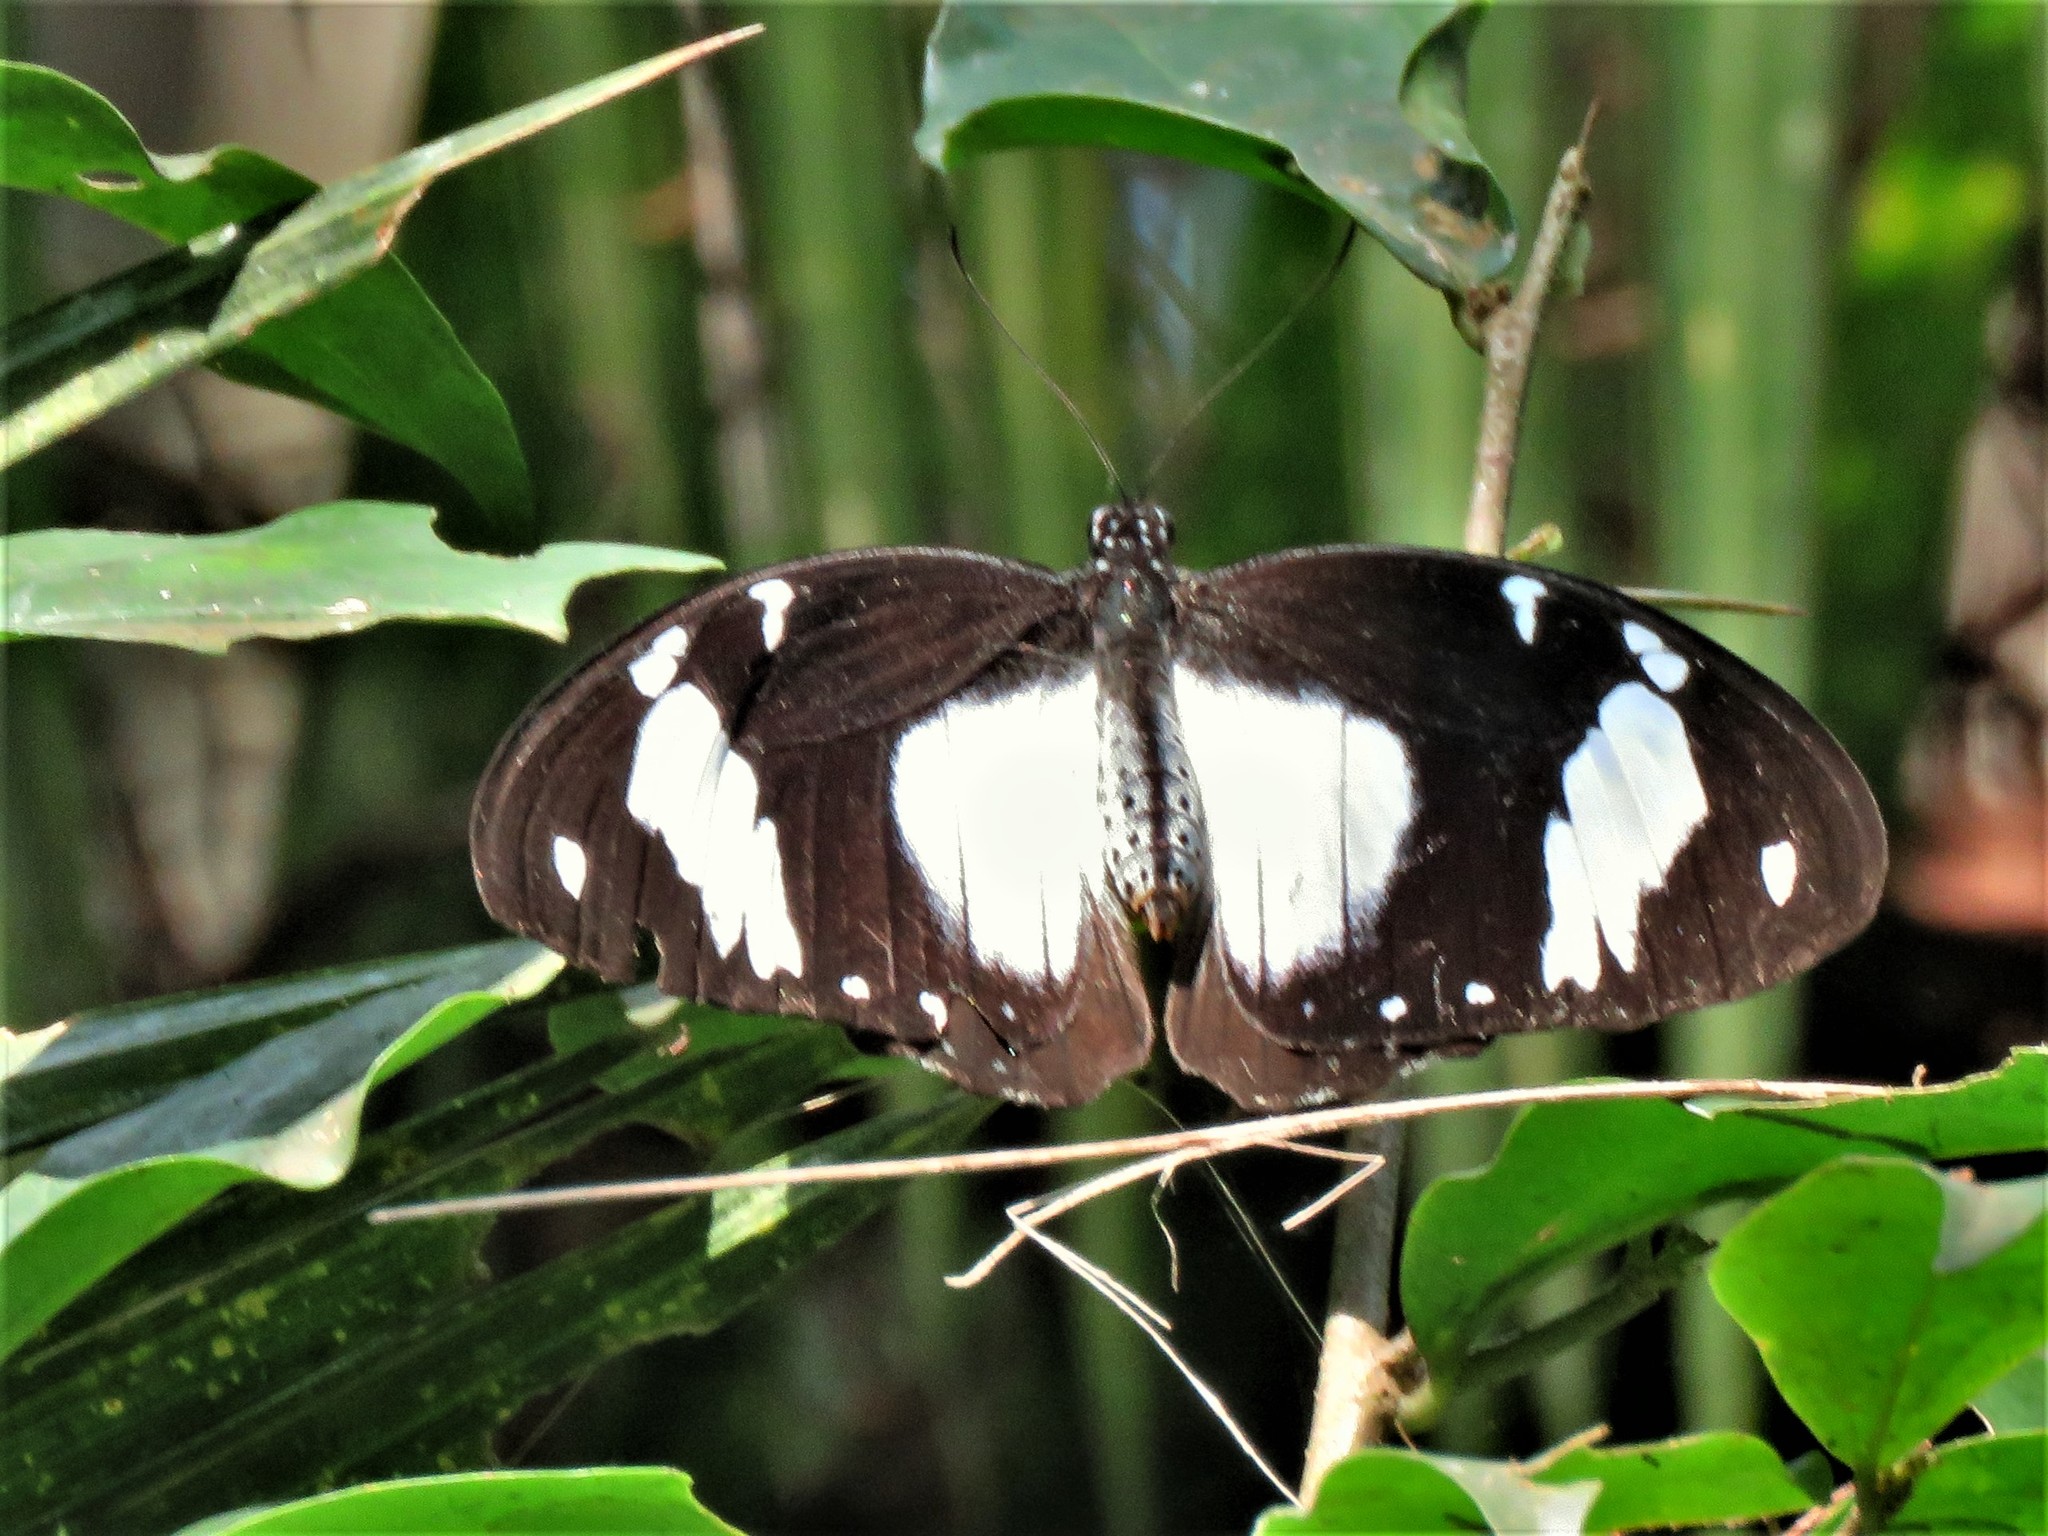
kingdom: Animalia
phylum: Arthropoda
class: Insecta
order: Lepidoptera
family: Papilionidae
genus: Papilio
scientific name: Papilio dardanus
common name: Flying handkerchief
